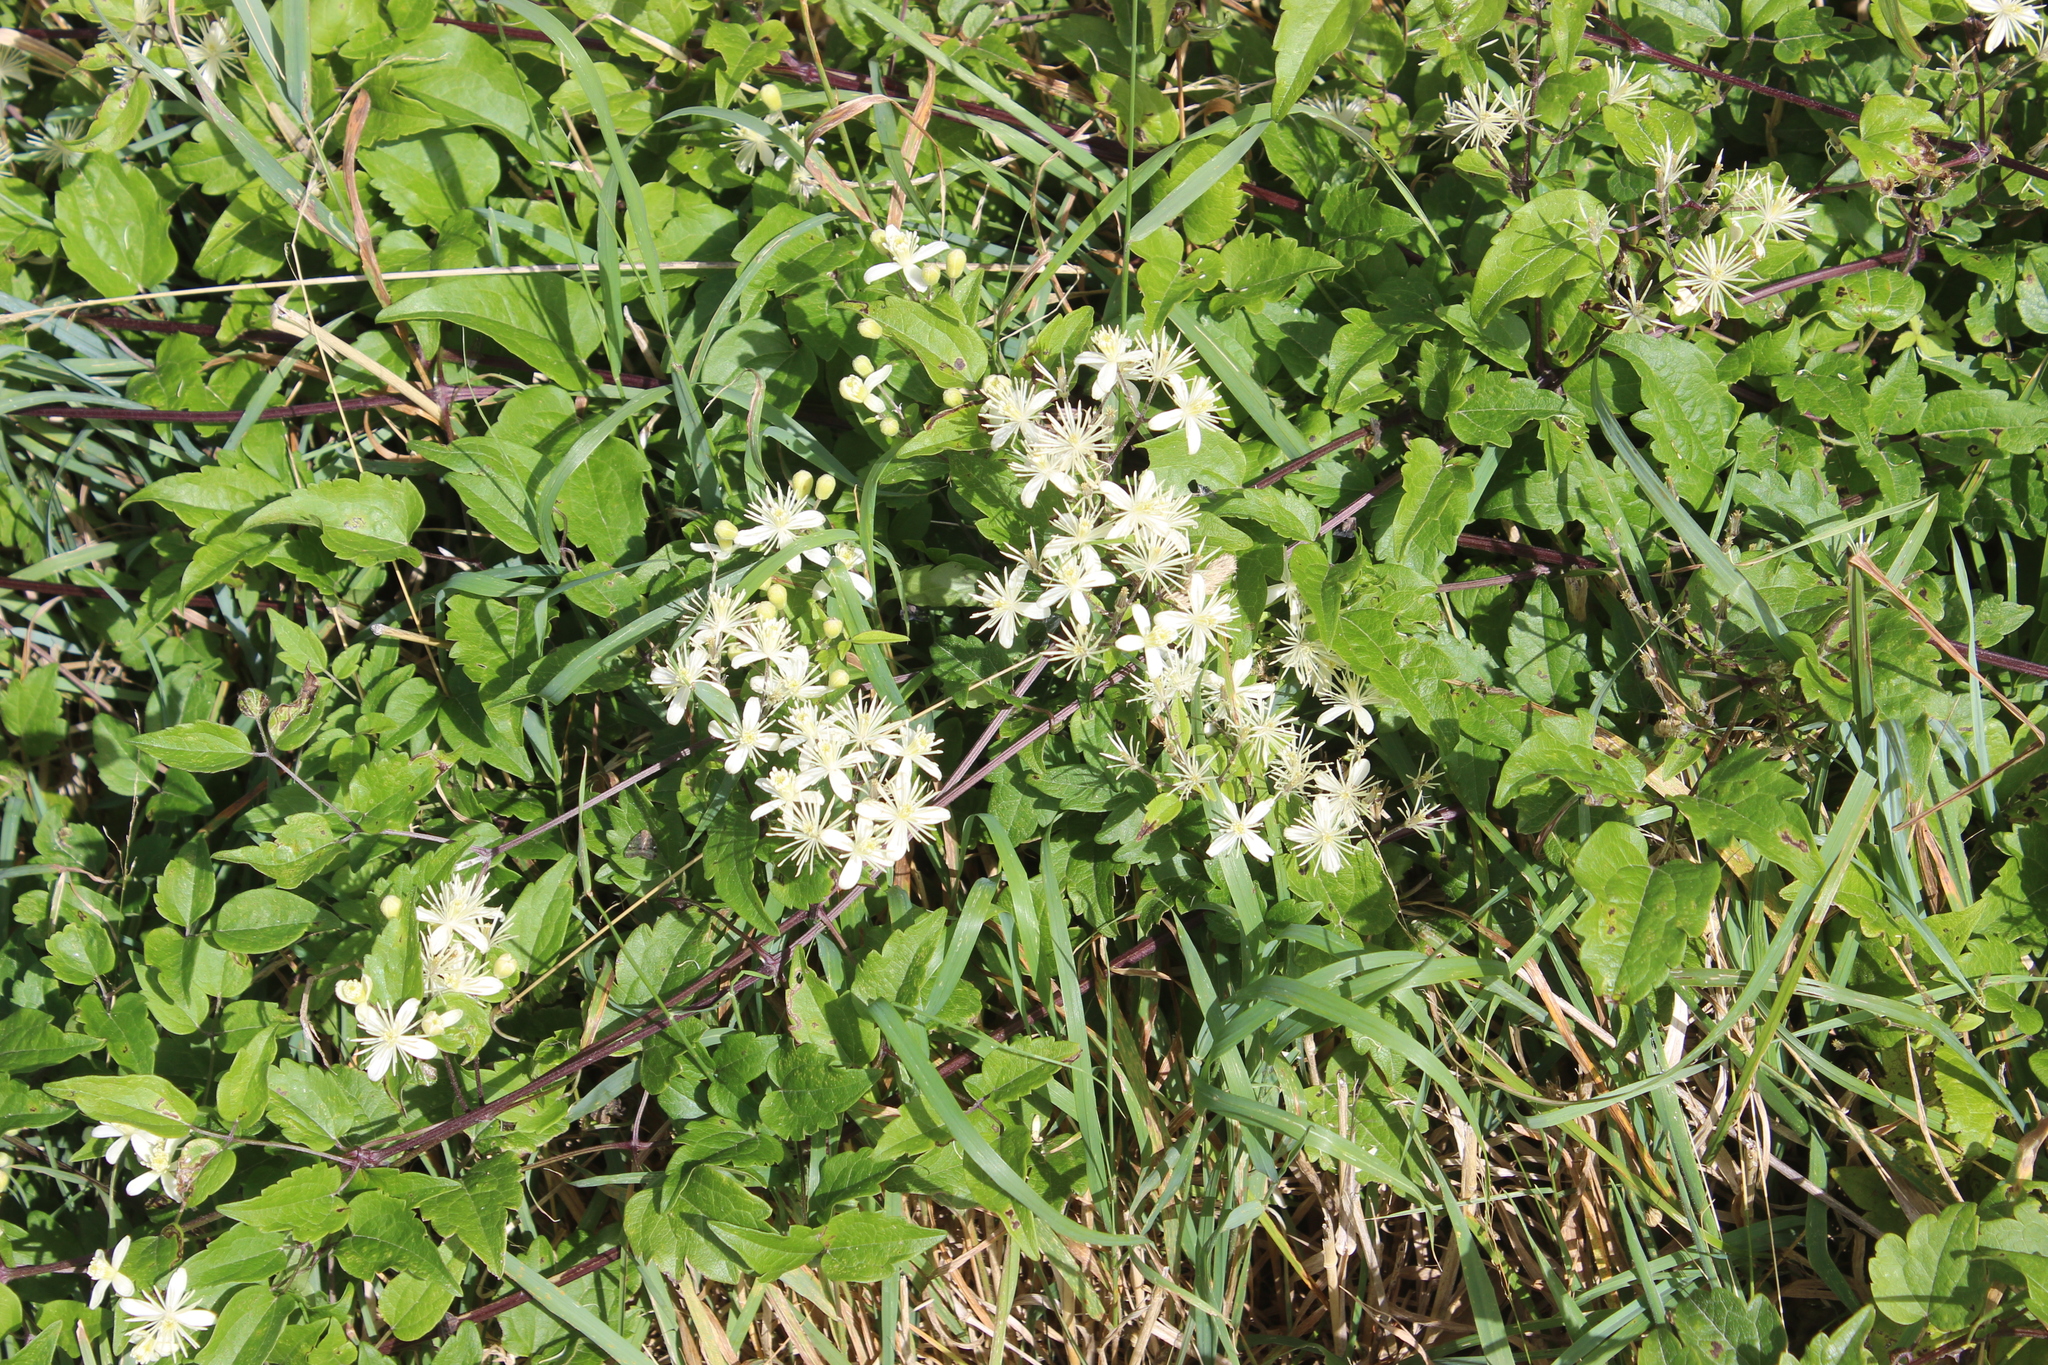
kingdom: Plantae
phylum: Tracheophyta
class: Magnoliopsida
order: Ranunculales
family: Ranunculaceae
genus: Clematis
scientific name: Clematis vitalba
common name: Evergreen clematis
